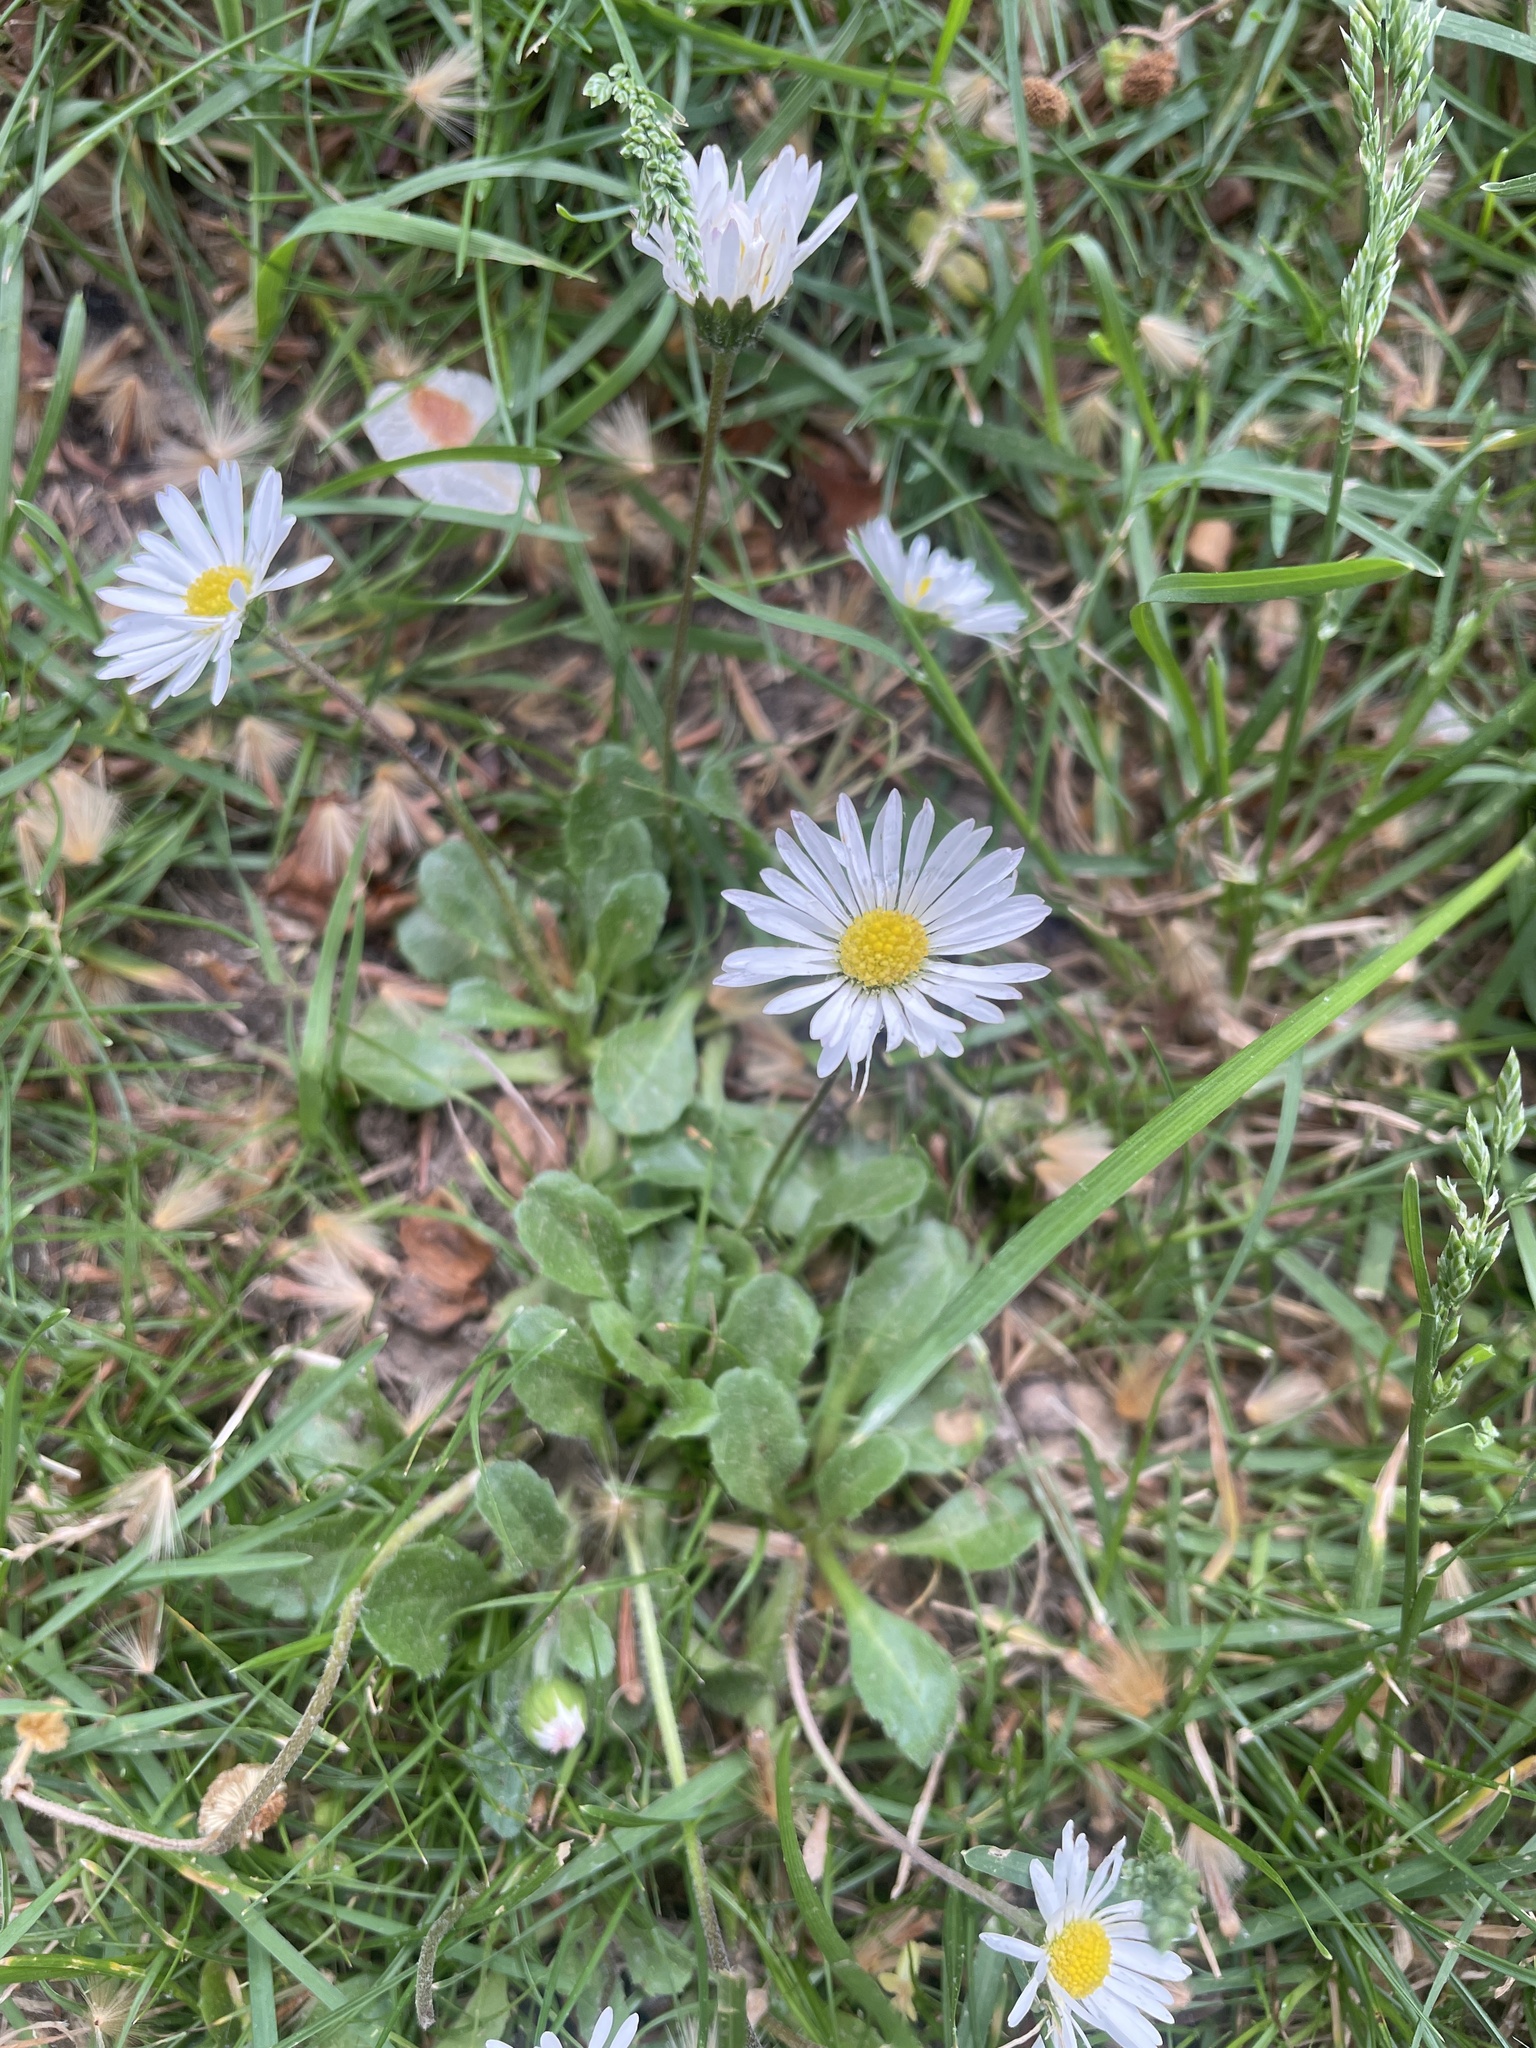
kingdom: Plantae
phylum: Tracheophyta
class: Magnoliopsida
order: Asterales
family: Asteraceae
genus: Bellis
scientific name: Bellis perennis
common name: Lawndaisy
